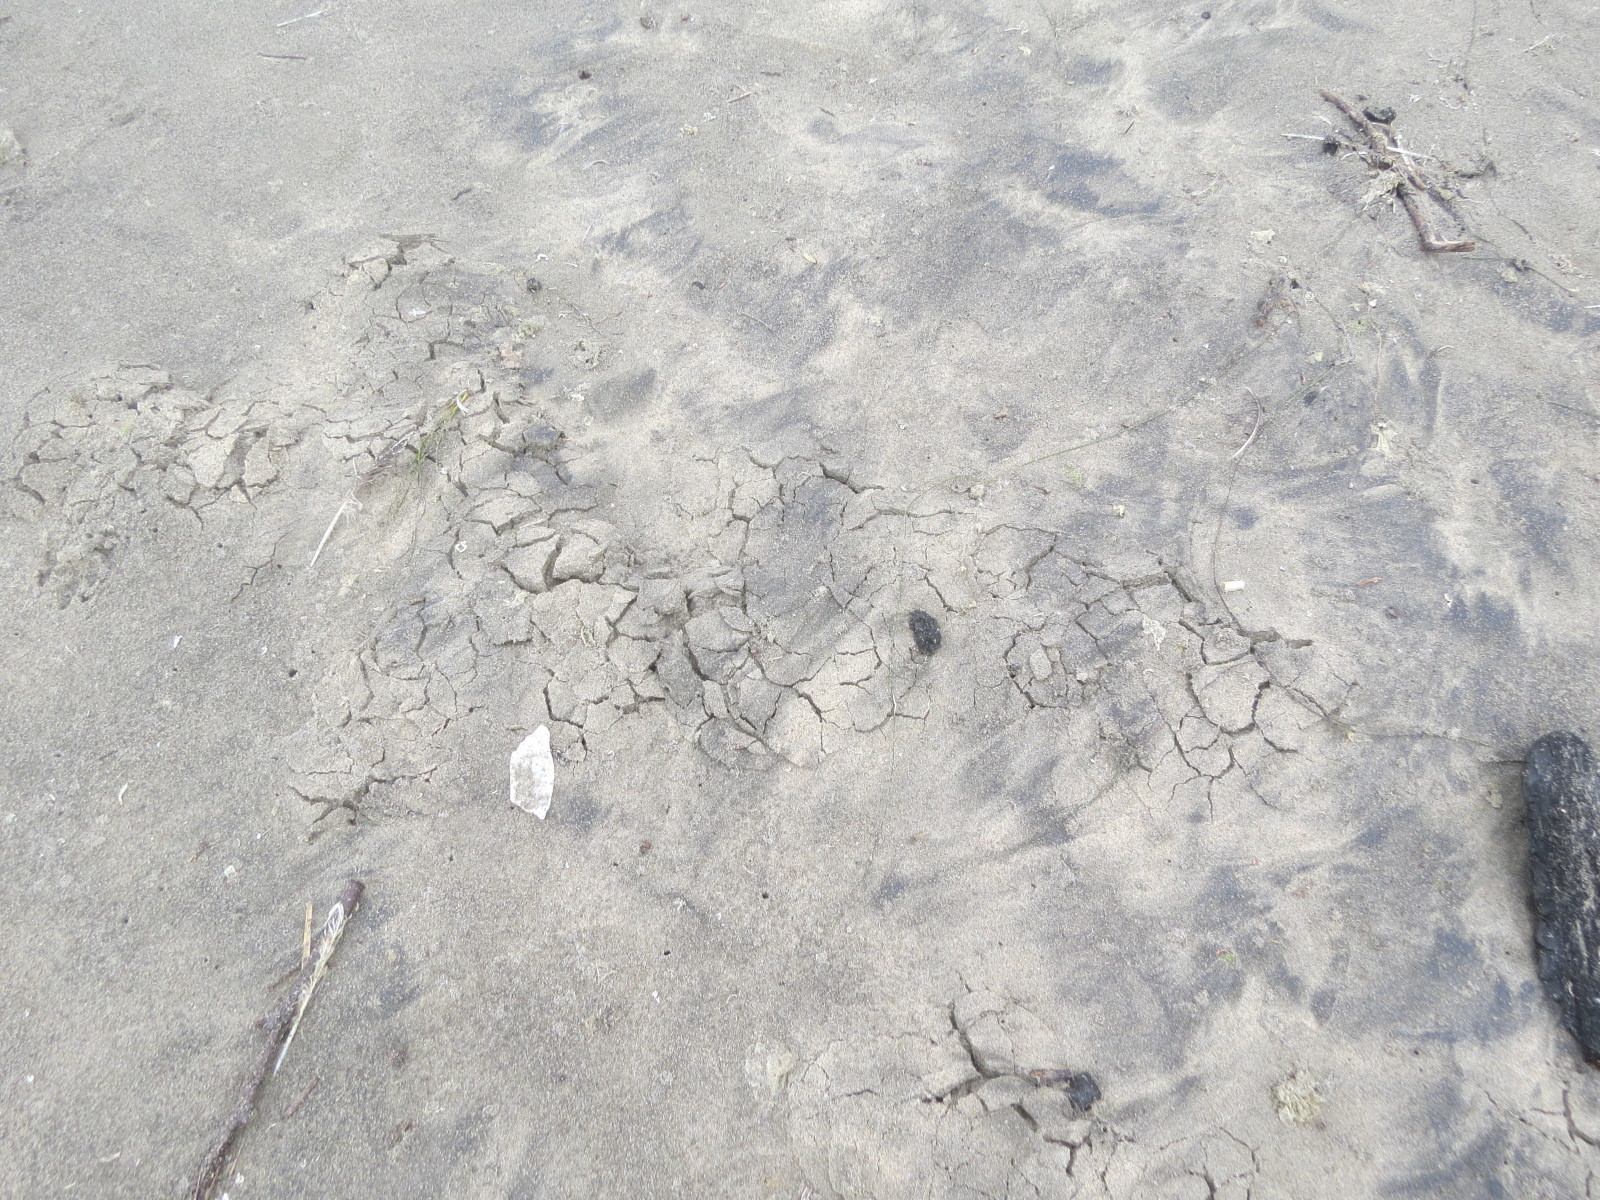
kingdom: Animalia
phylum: Chordata
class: Mammalia
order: Soricomorpha
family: Talpidae
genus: Scapanus
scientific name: Scapanus latimanus
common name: Broad-footed mole
